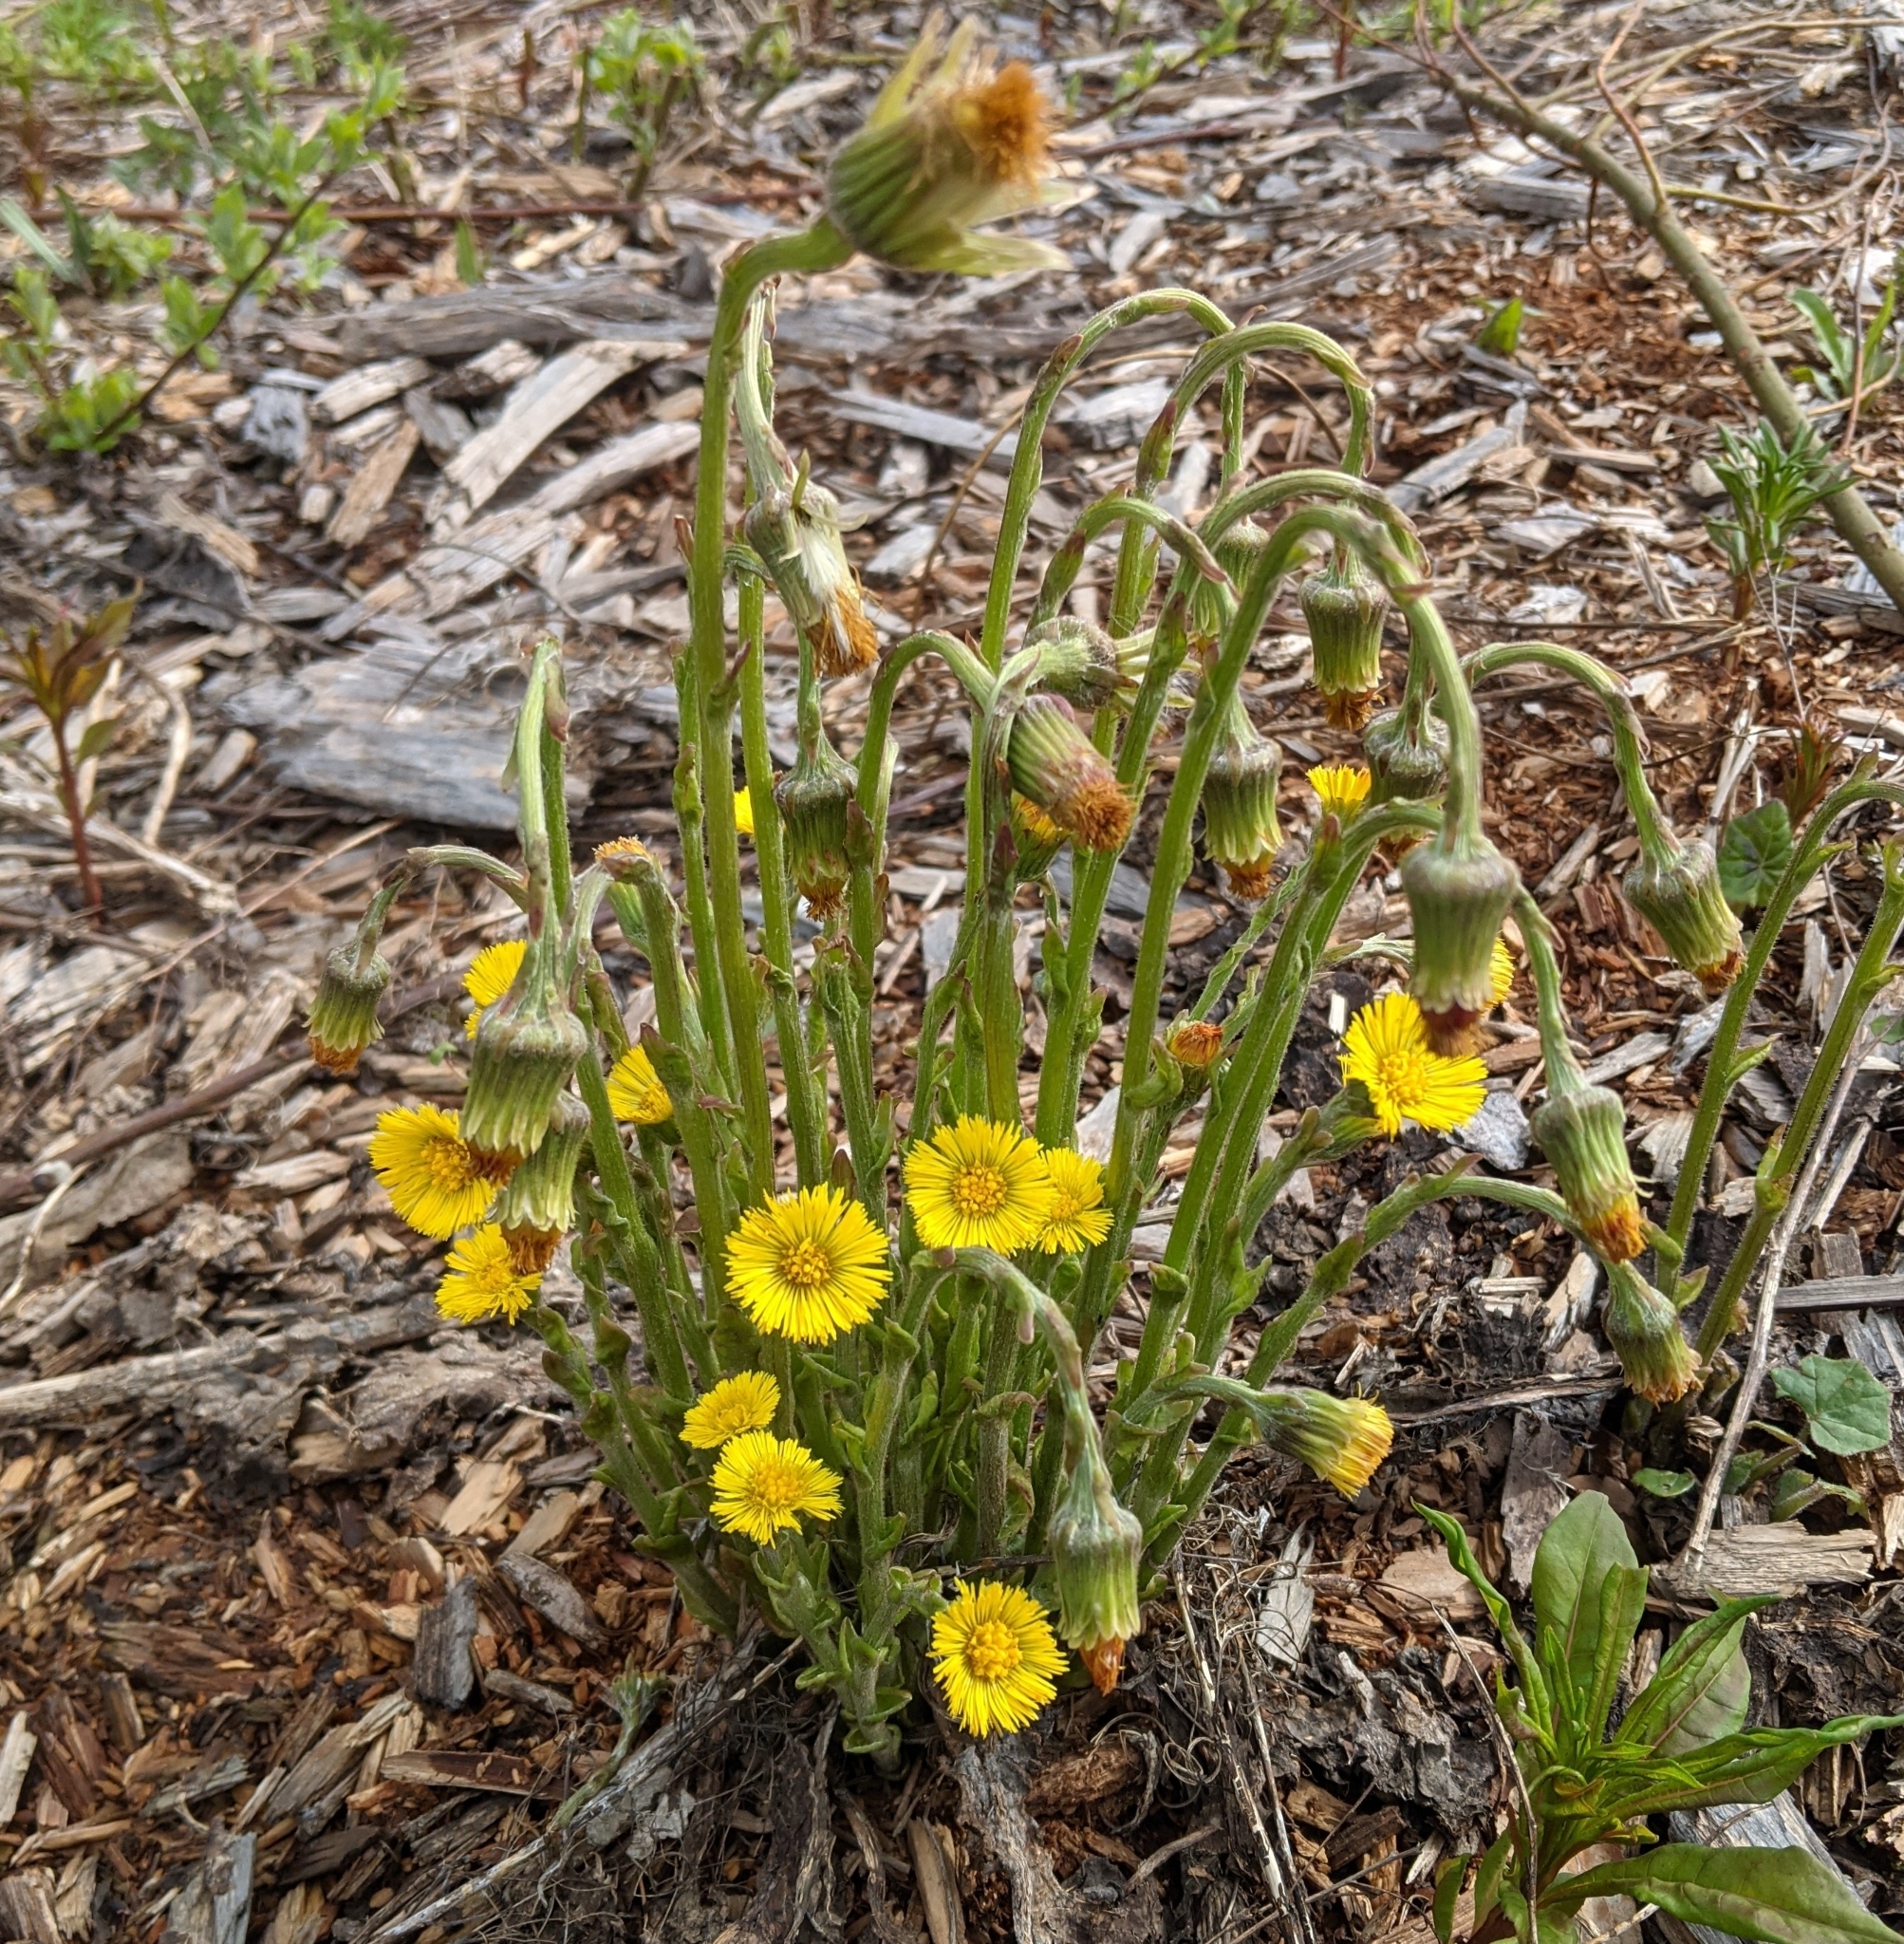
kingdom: Plantae
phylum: Tracheophyta
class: Magnoliopsida
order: Asterales
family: Asteraceae
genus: Tussilago
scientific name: Tussilago farfara
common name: Coltsfoot
